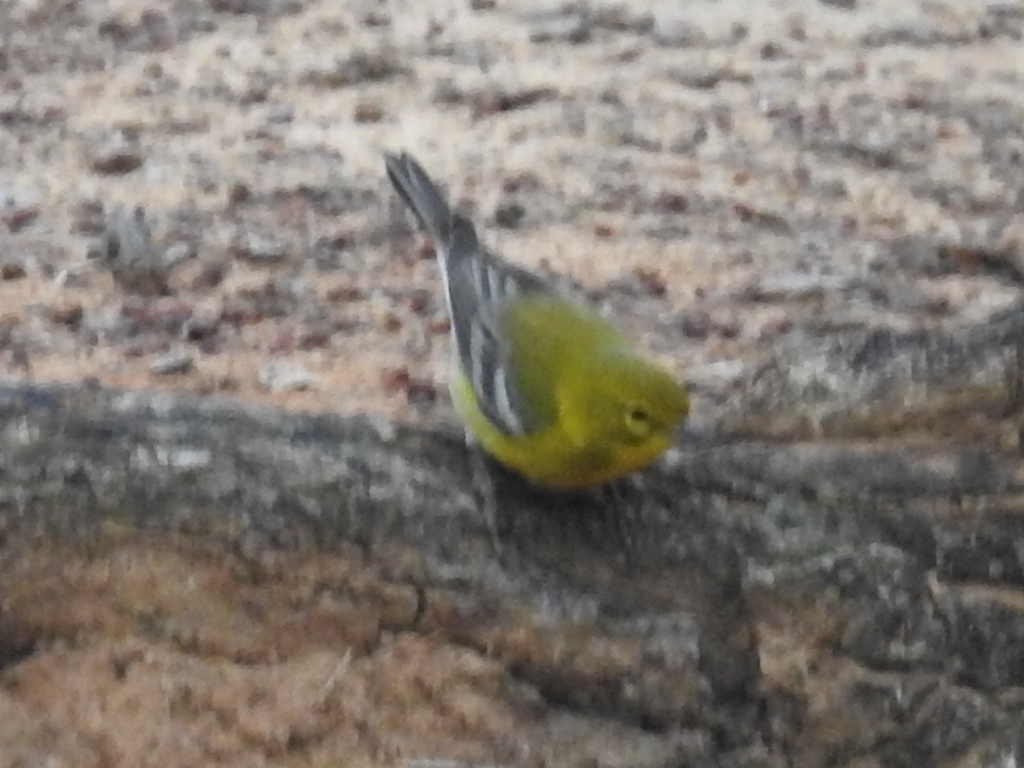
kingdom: Animalia
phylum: Chordata
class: Aves
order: Passeriformes
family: Parulidae
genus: Setophaga
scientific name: Setophaga pinus
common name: Pine warbler
